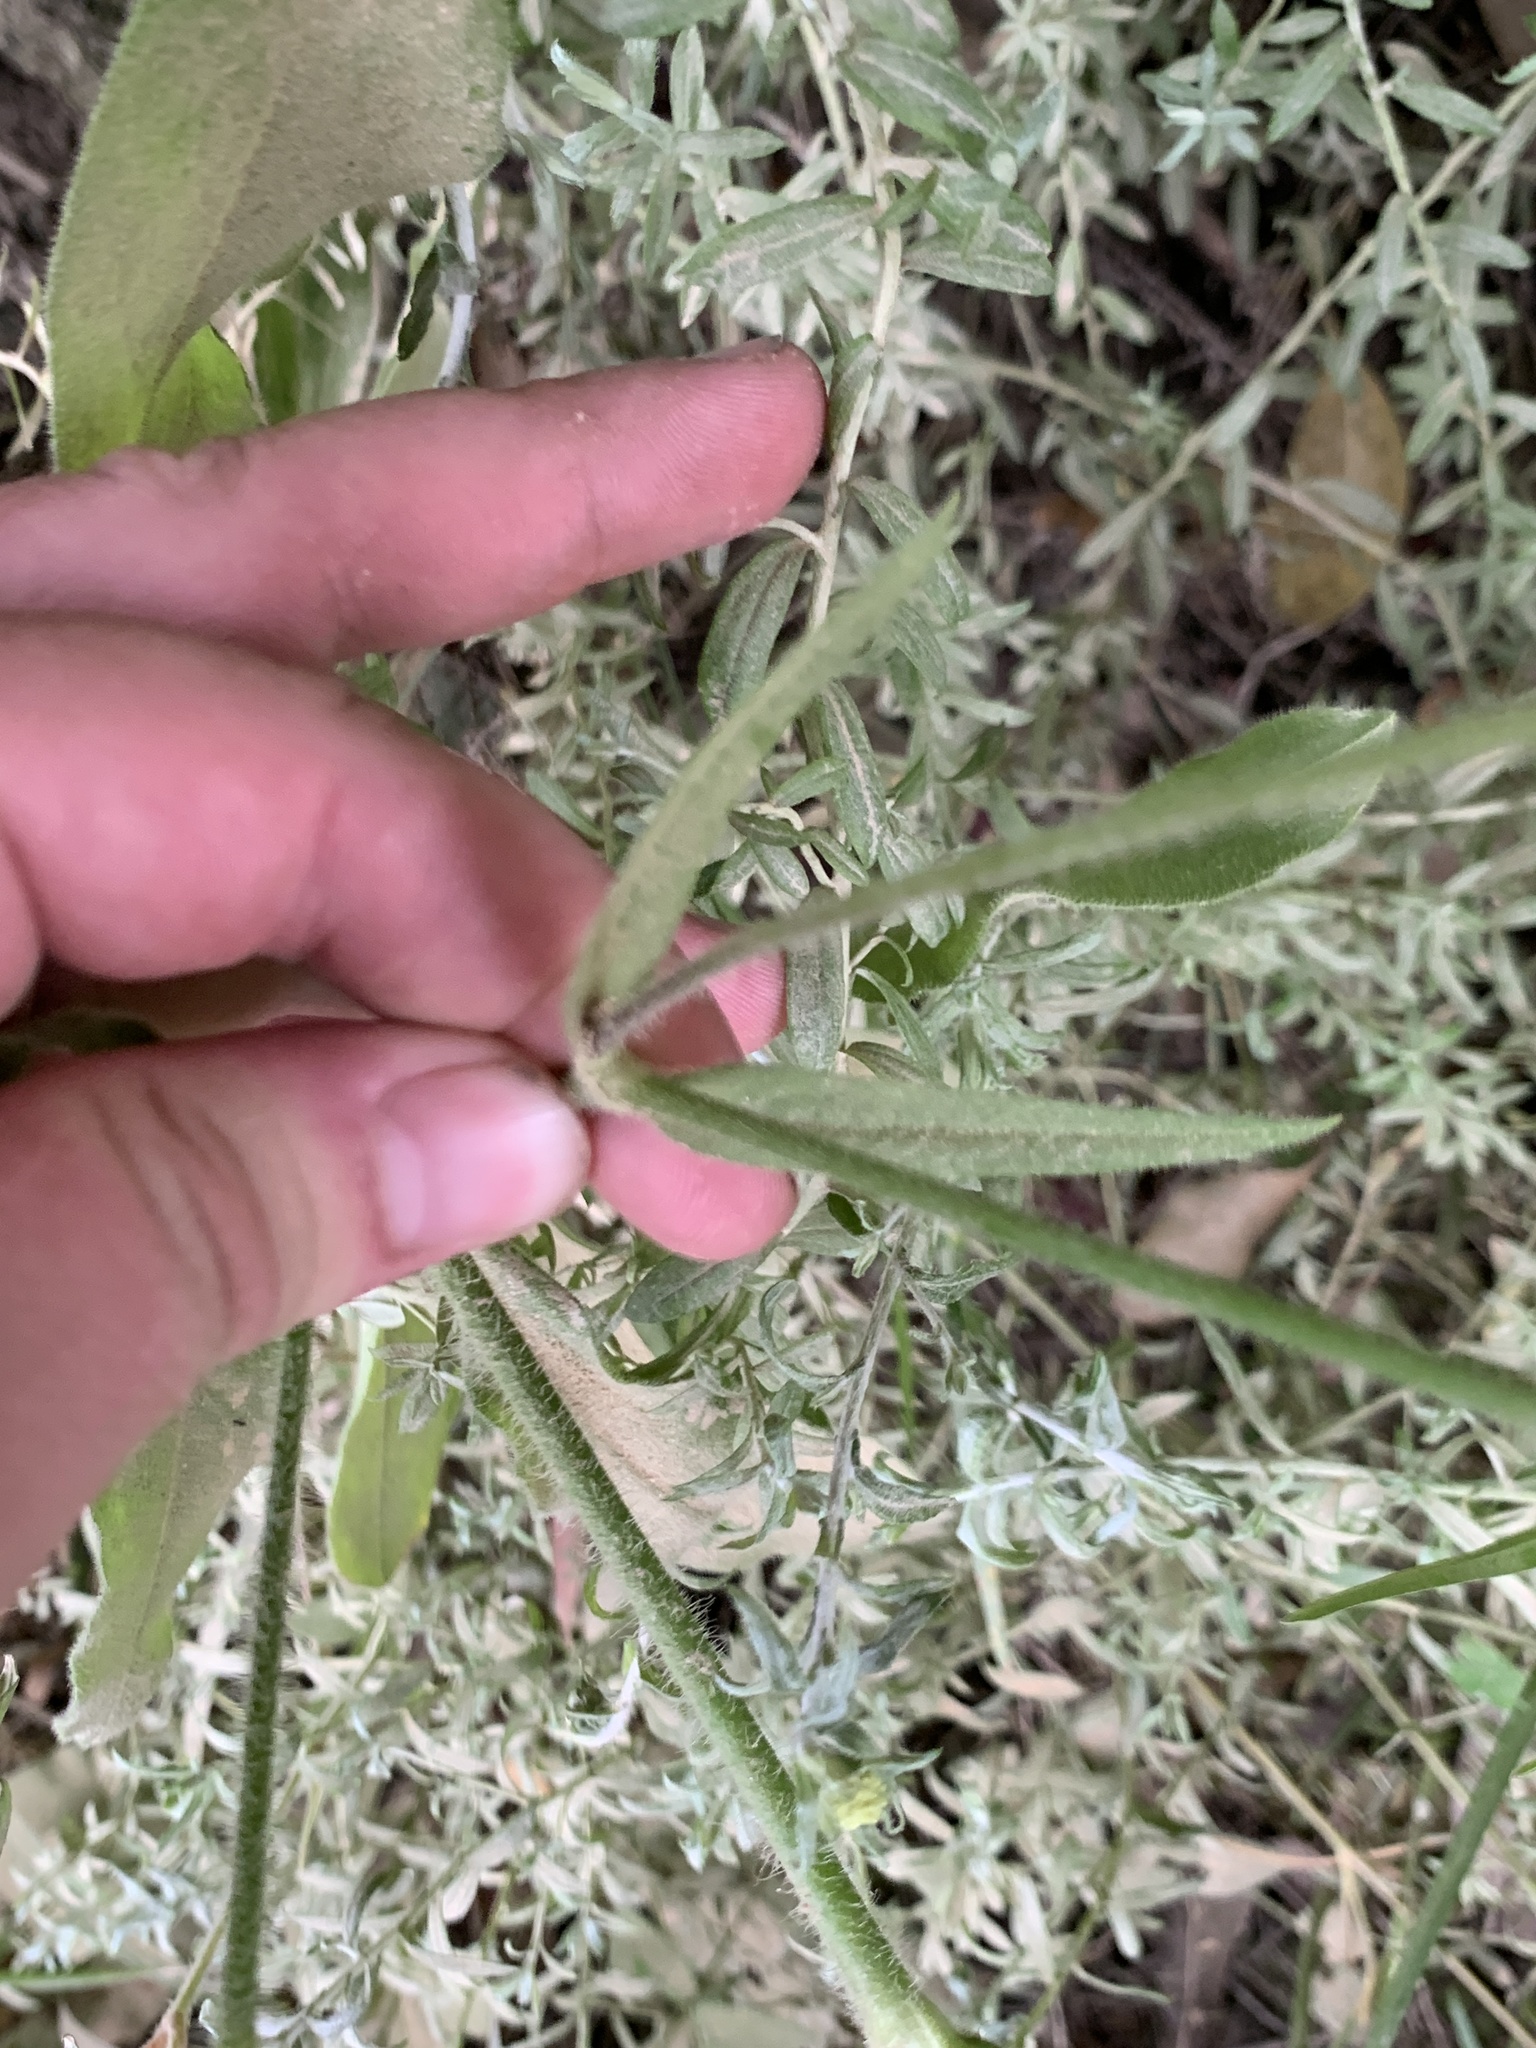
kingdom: Plantae
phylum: Tracheophyta
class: Magnoliopsida
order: Caryophyllales
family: Caryophyllaceae
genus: Silene
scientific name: Silene undulata
